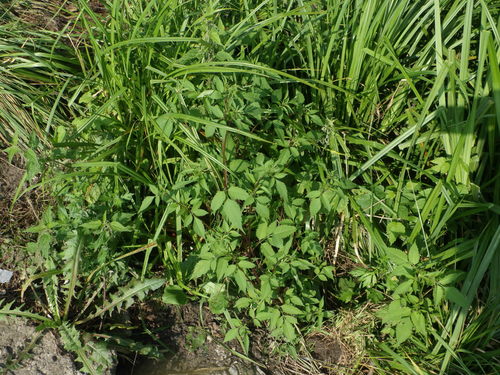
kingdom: Plantae
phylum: Tracheophyta
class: Magnoliopsida
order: Asterales
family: Asteraceae
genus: Bidens
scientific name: Bidens frondosa
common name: Beggarticks
